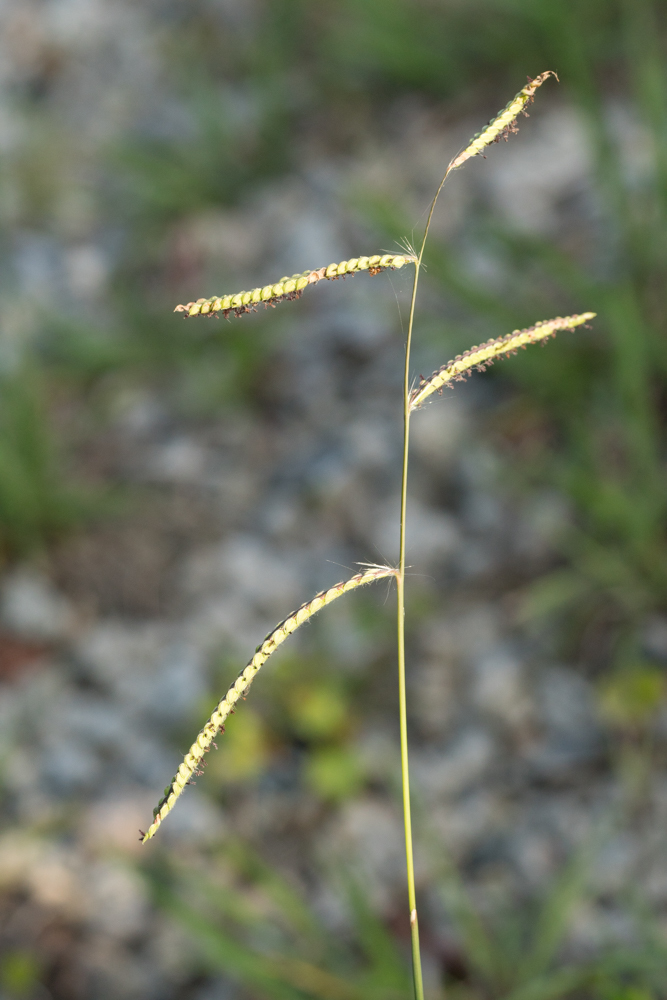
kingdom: Plantae
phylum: Tracheophyta
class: Liliopsida
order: Poales
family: Poaceae
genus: Paspalum
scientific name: Paspalum dilatatum
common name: Dallisgrass
